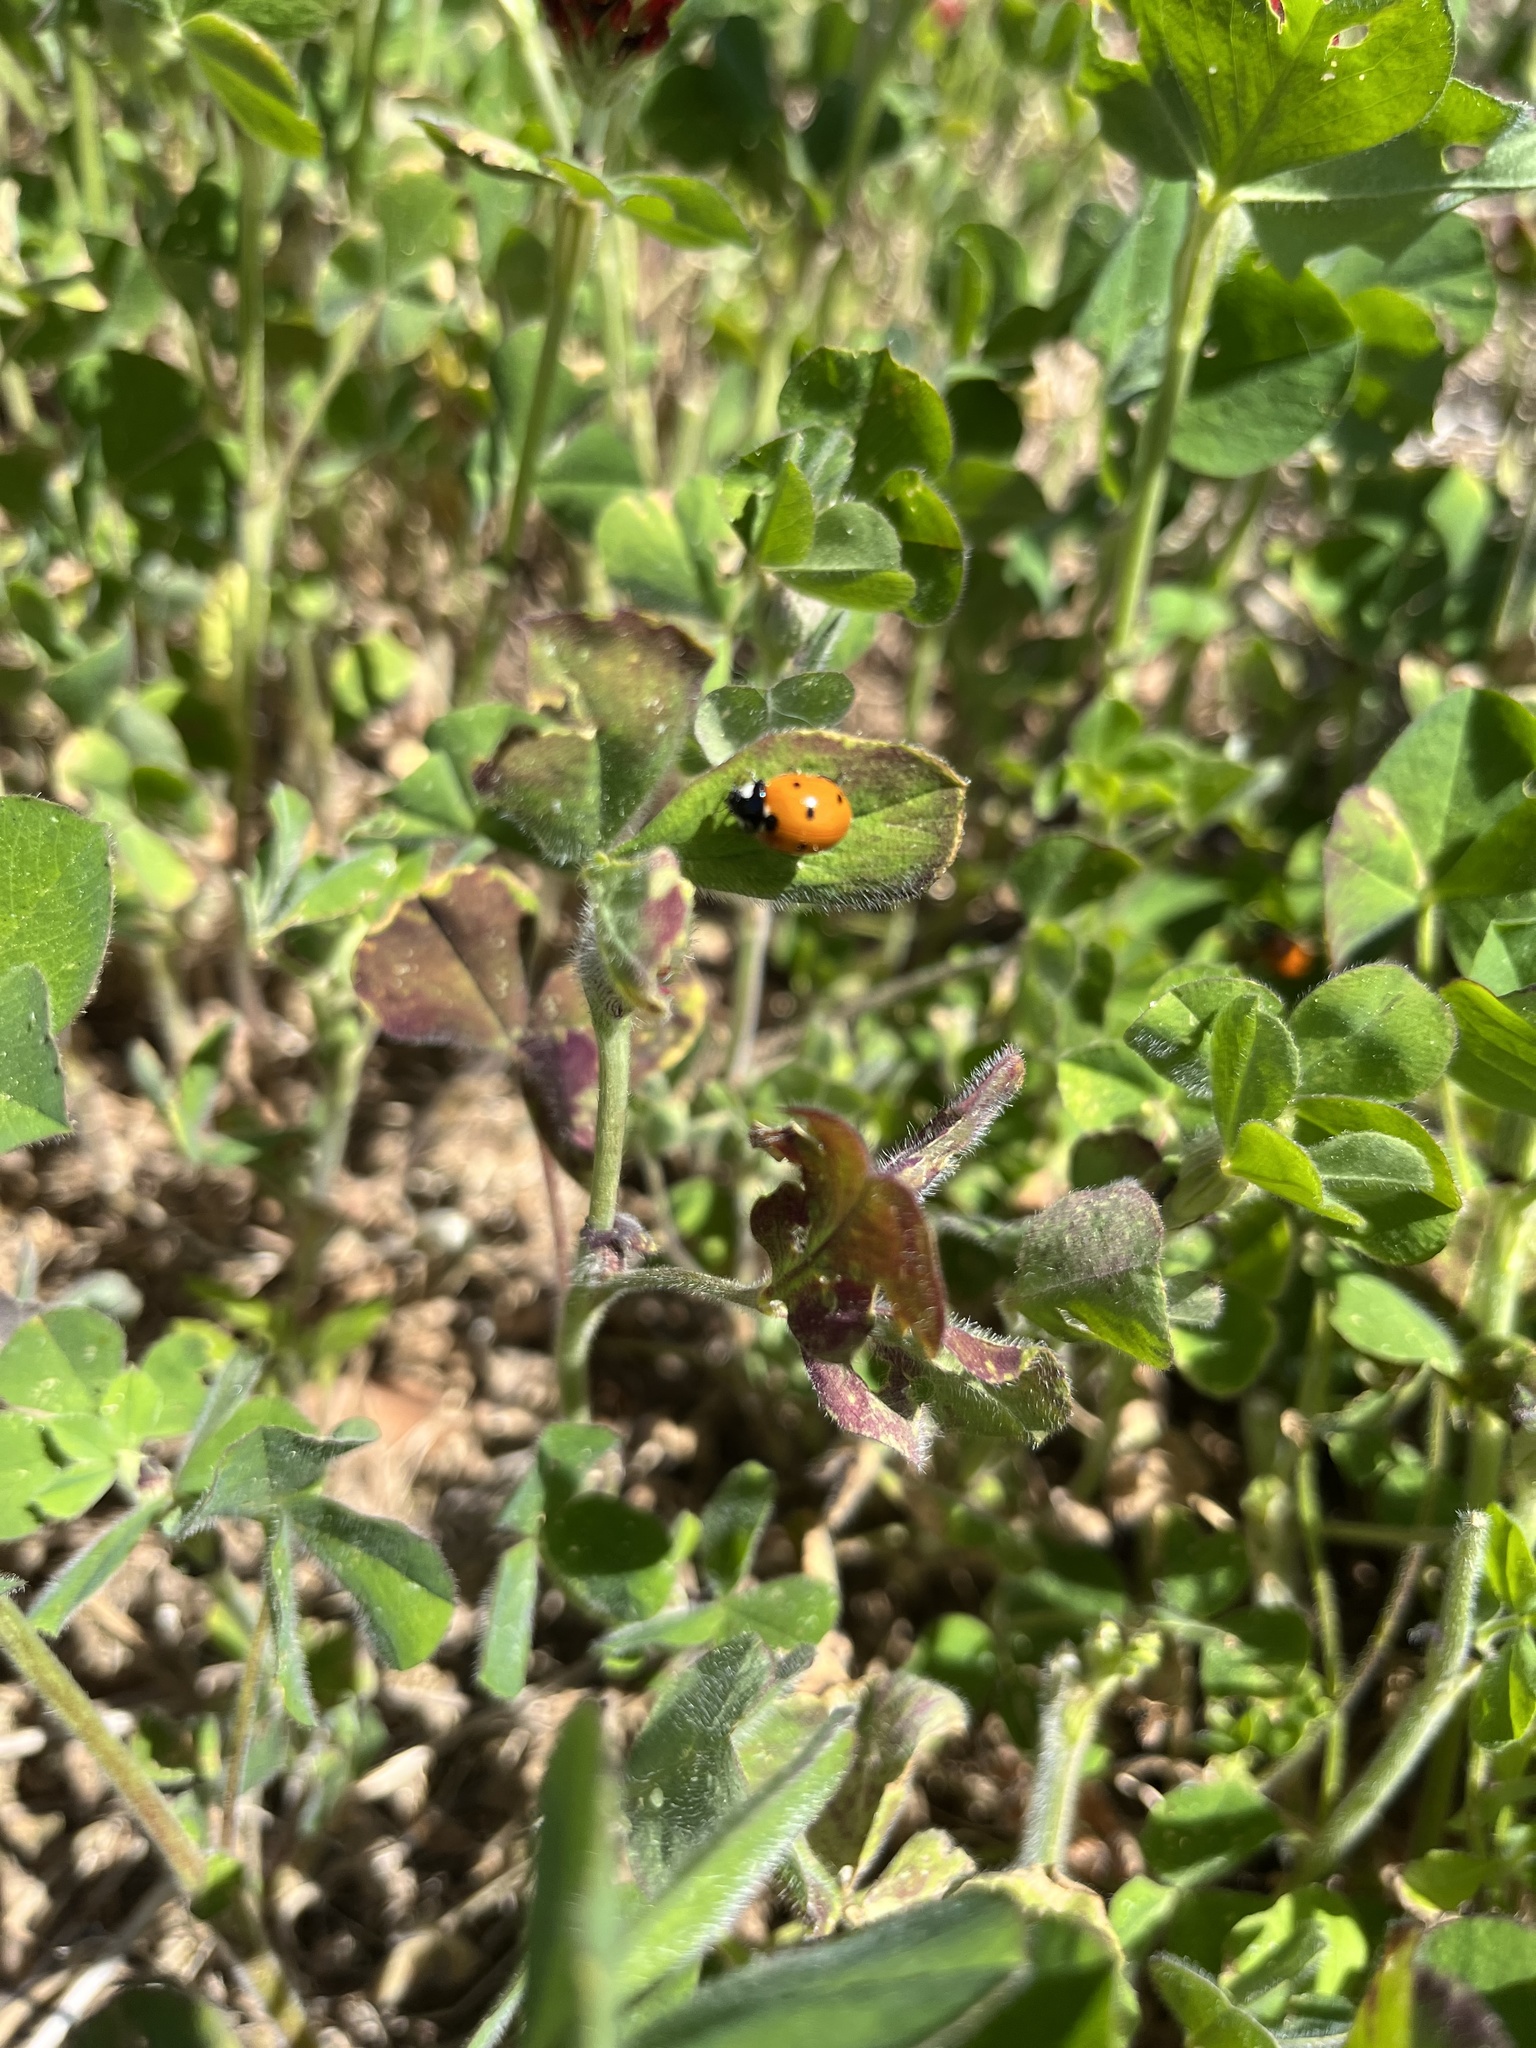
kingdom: Animalia
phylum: Arthropoda
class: Insecta
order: Coleoptera
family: Coccinellidae
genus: Coccinella
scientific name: Coccinella septempunctata
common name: Sevenspotted lady beetle
